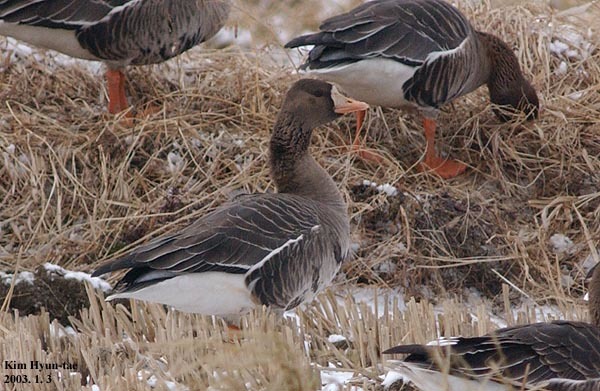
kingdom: Animalia
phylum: Chordata
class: Aves
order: Anseriformes
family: Anatidae
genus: Anser
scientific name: Anser albifrons
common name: Greater white-fronted goose
